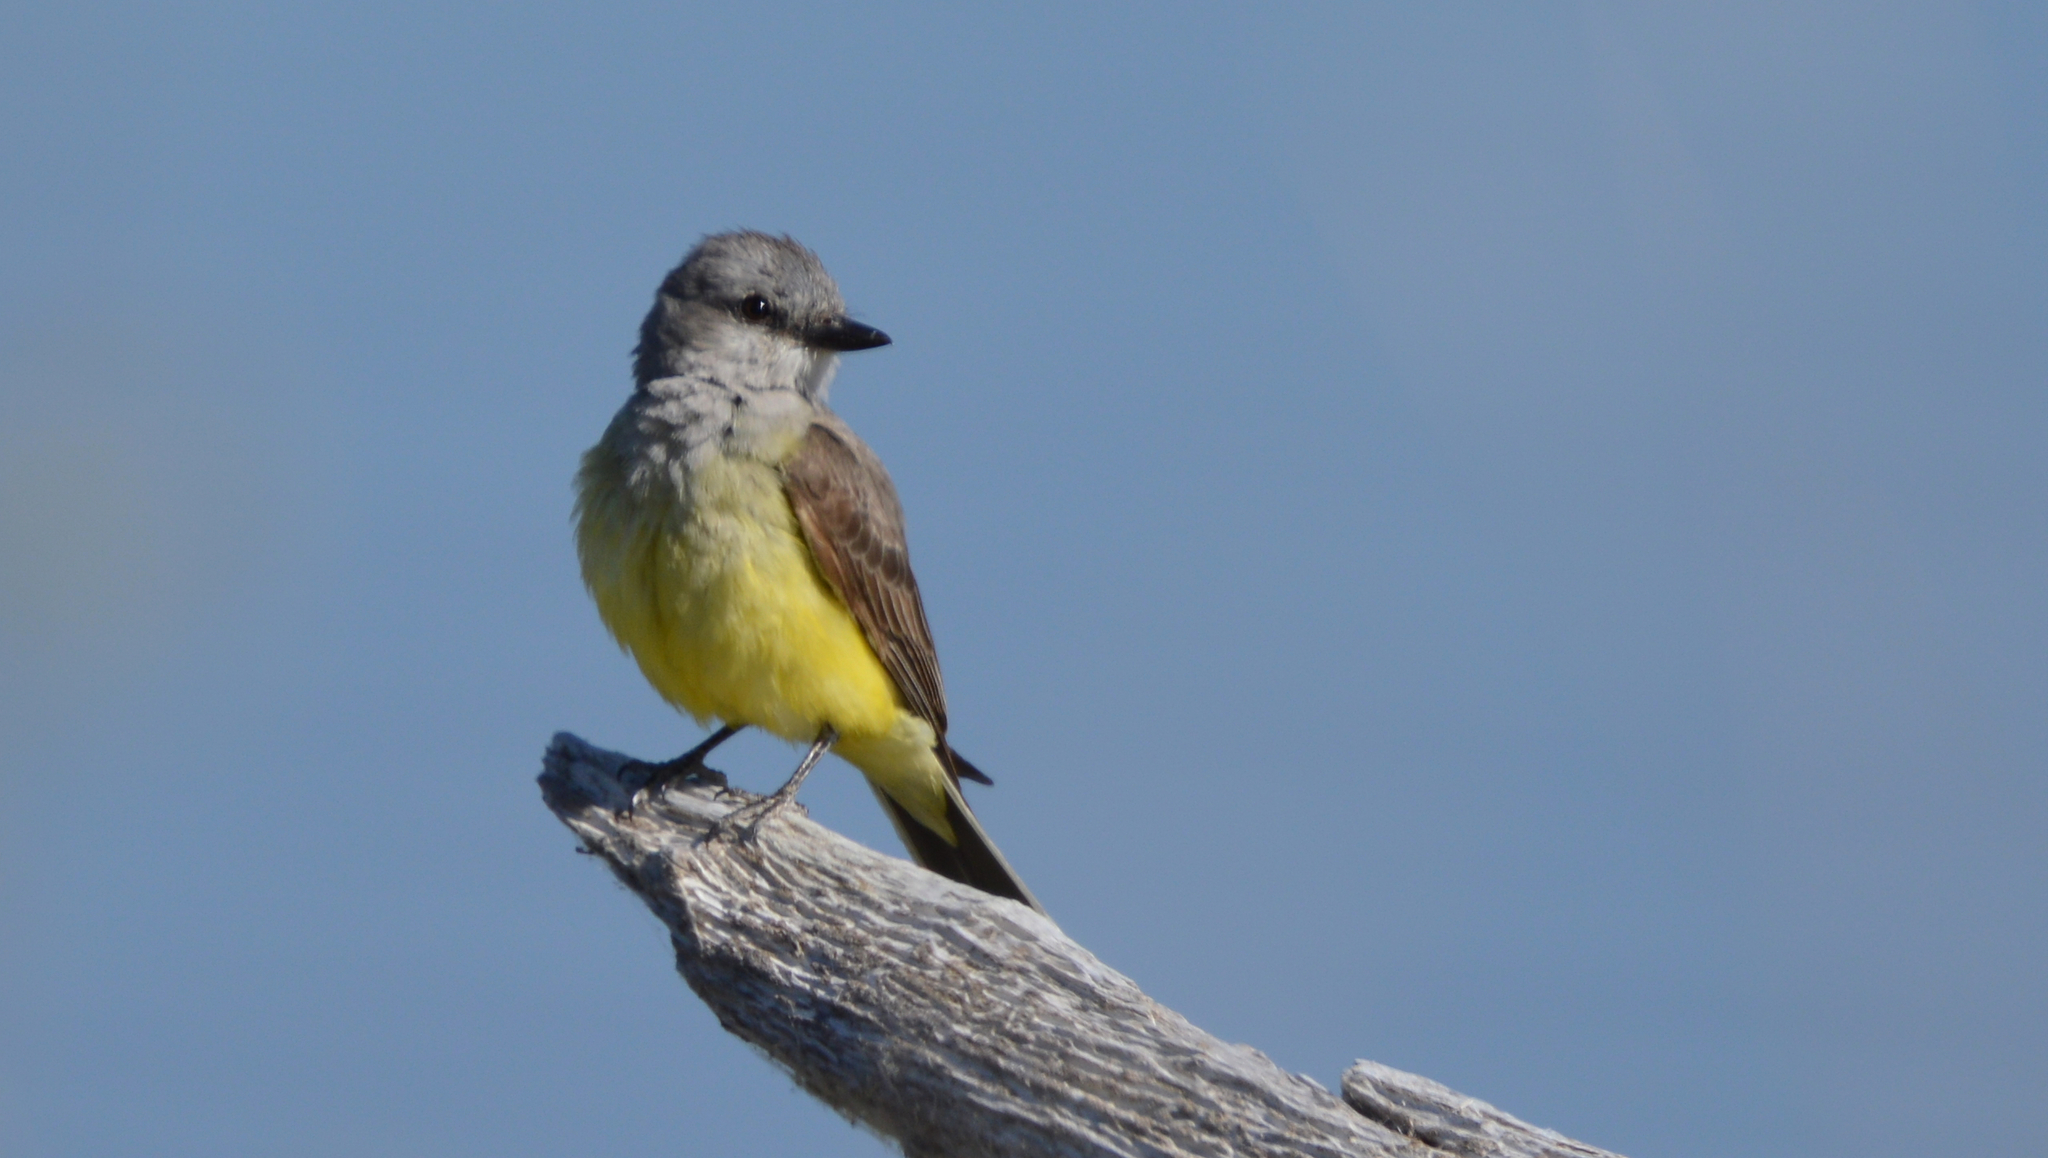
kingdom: Animalia
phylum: Chordata
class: Aves
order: Passeriformes
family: Tyrannidae
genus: Tyrannus
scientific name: Tyrannus verticalis
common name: Western kingbird
